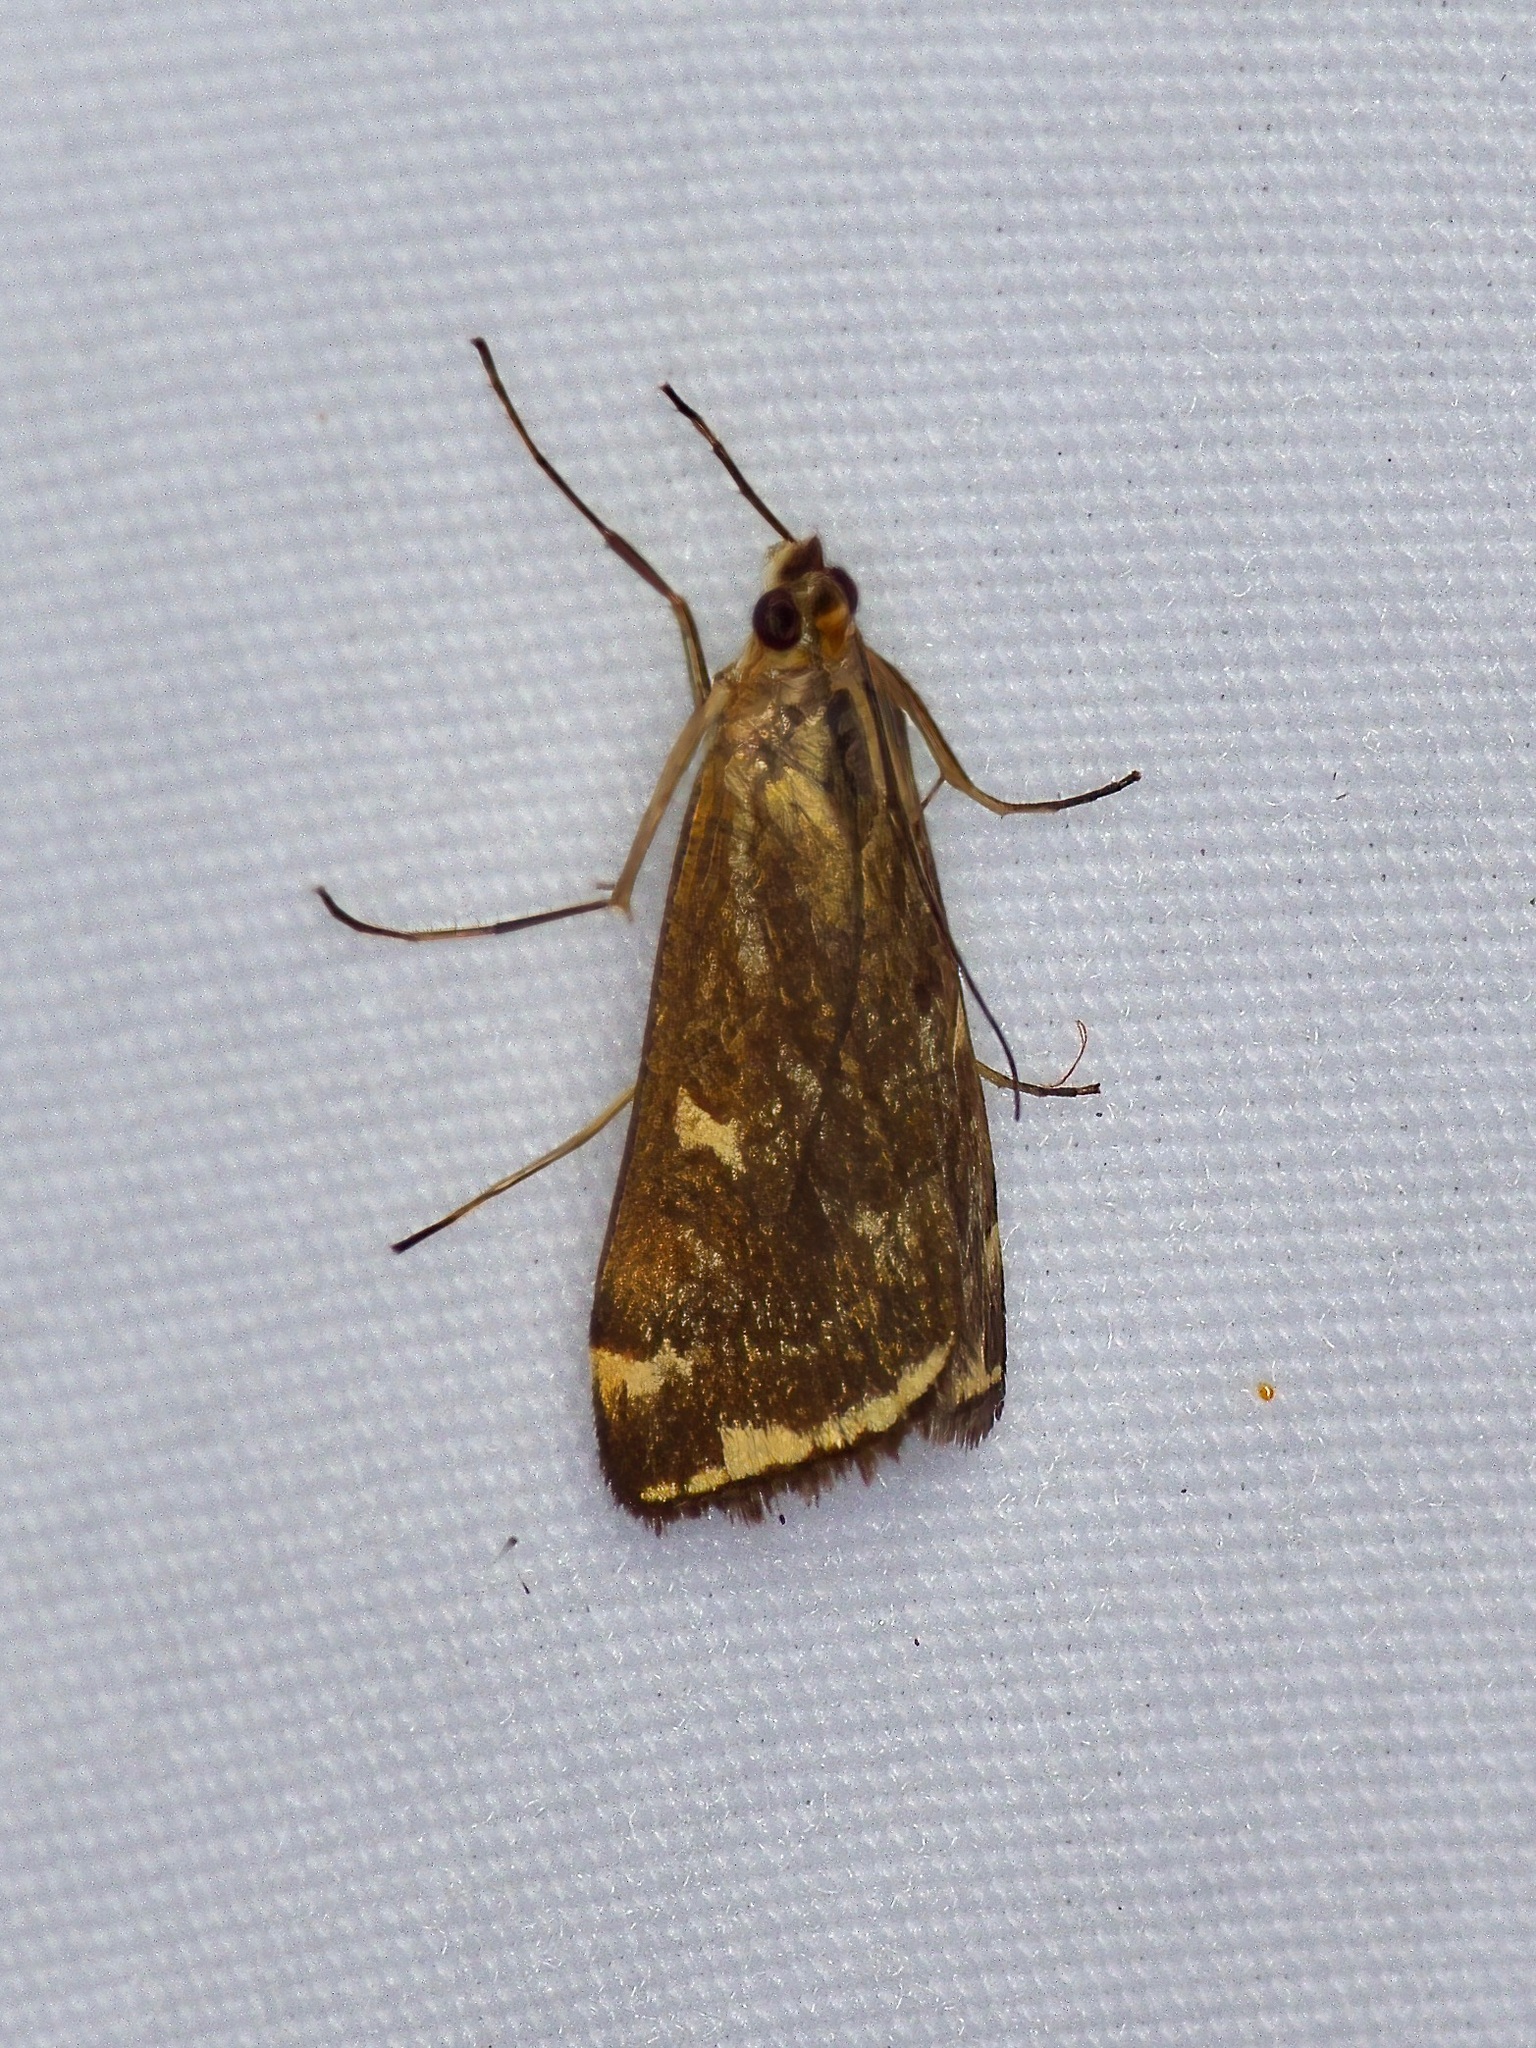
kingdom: Animalia
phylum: Arthropoda
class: Insecta
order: Lepidoptera
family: Crambidae
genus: Loxostege
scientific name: Loxostege
